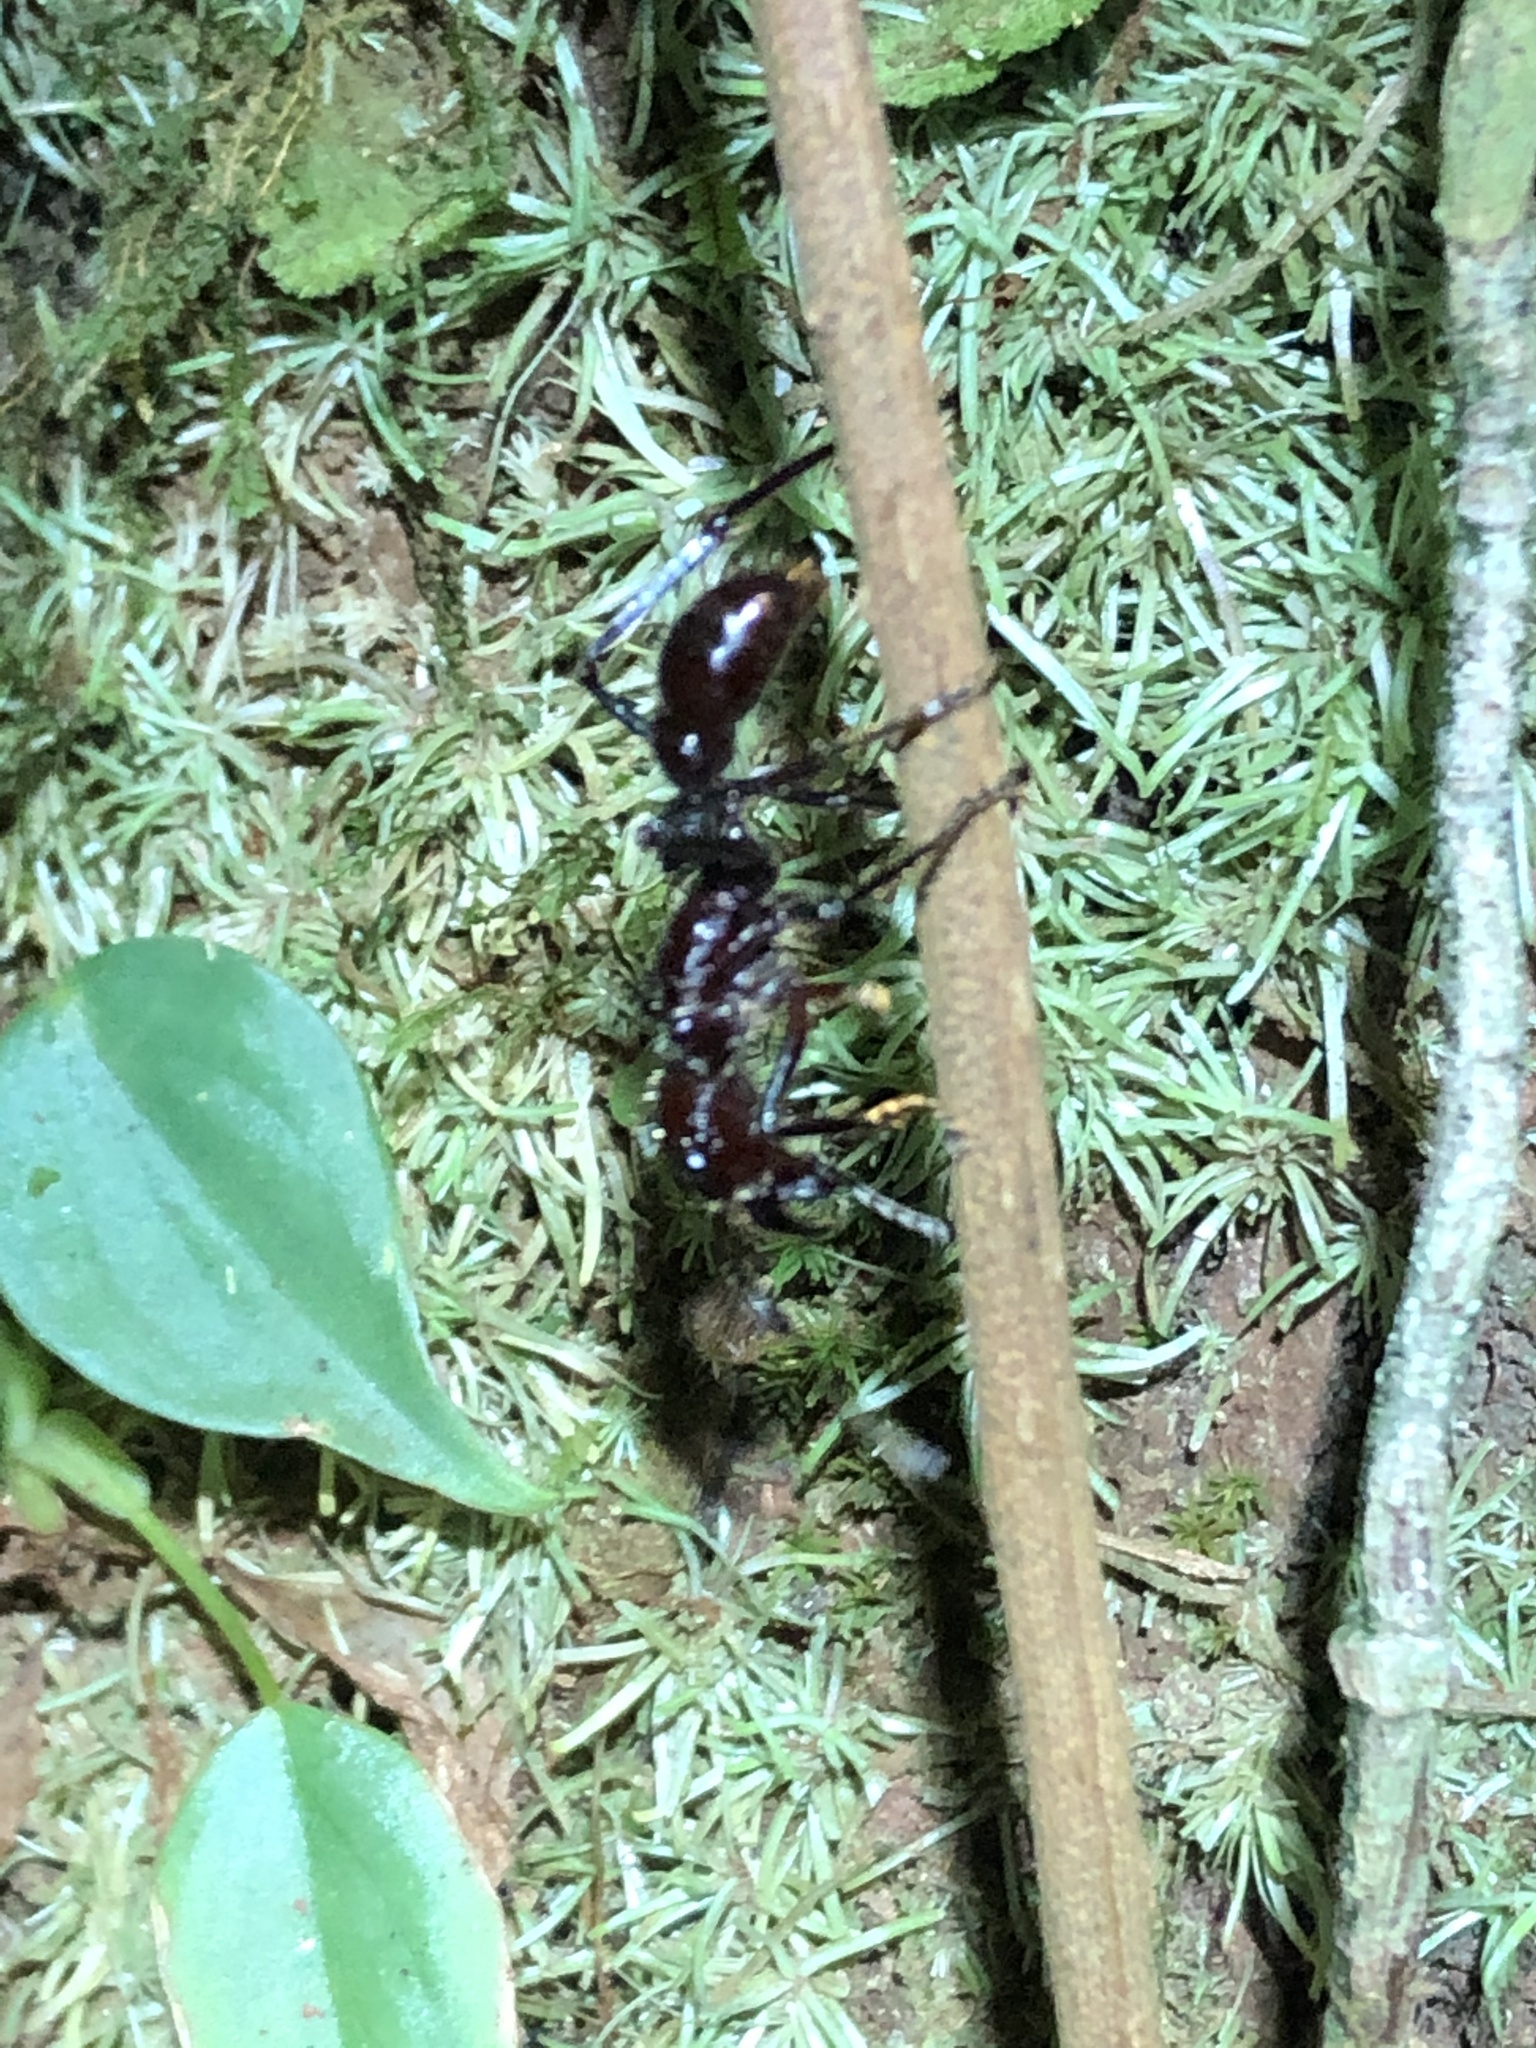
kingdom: Animalia
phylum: Arthropoda
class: Insecta
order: Hymenoptera
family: Formicidae
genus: Paraponera
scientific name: Paraponera clavata
